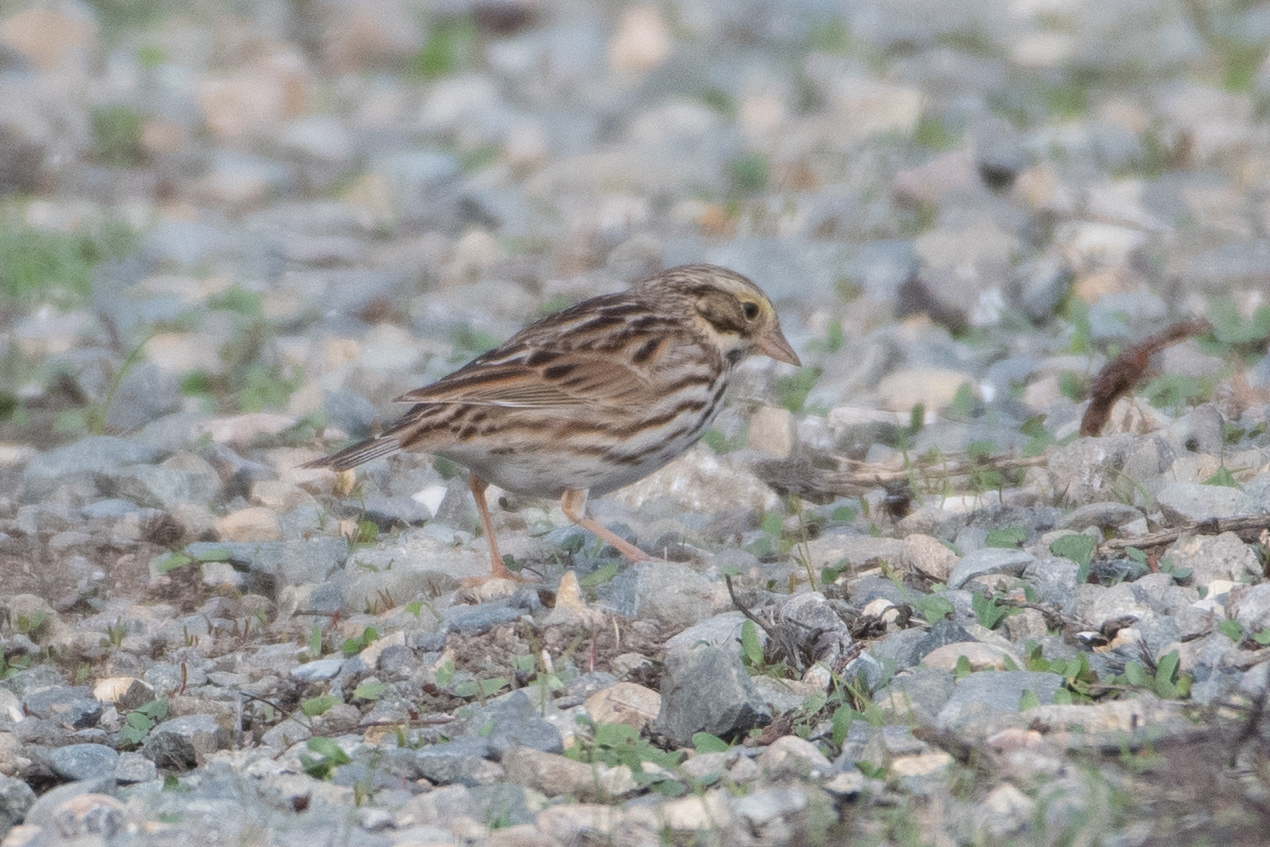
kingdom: Animalia
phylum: Chordata
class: Aves
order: Passeriformes
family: Passerellidae
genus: Passerculus
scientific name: Passerculus sandwichensis
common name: Savannah sparrow
